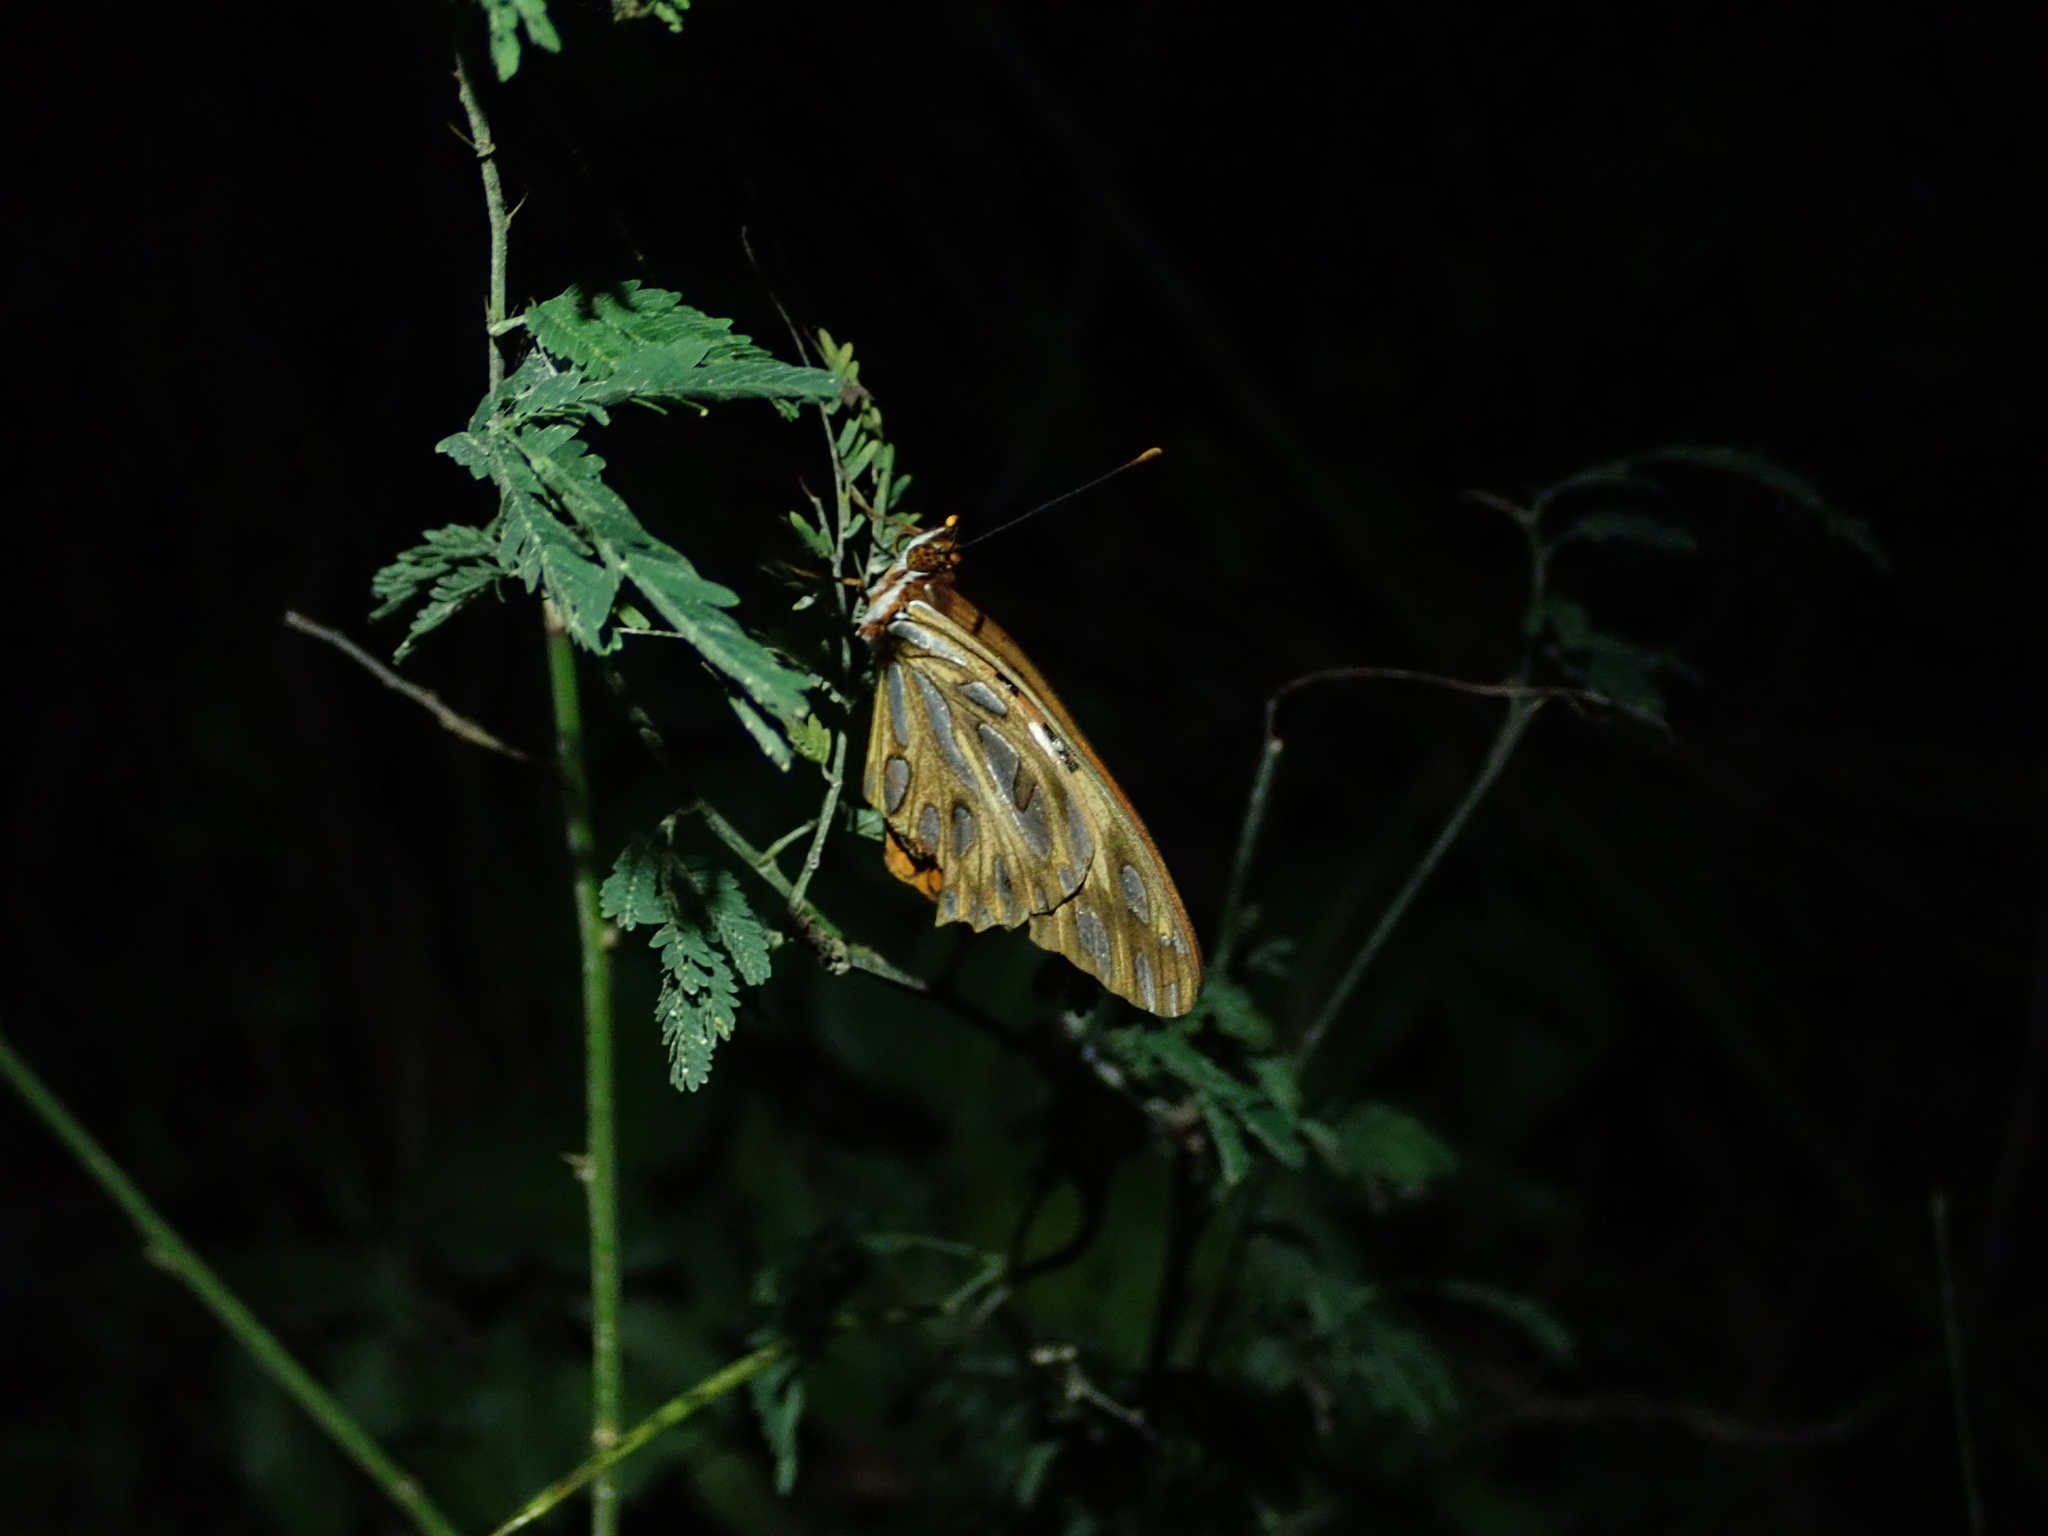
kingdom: Animalia
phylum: Arthropoda
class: Insecta
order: Lepidoptera
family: Nymphalidae
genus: Dione
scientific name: Dione vanillae
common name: Gulf fritillary
